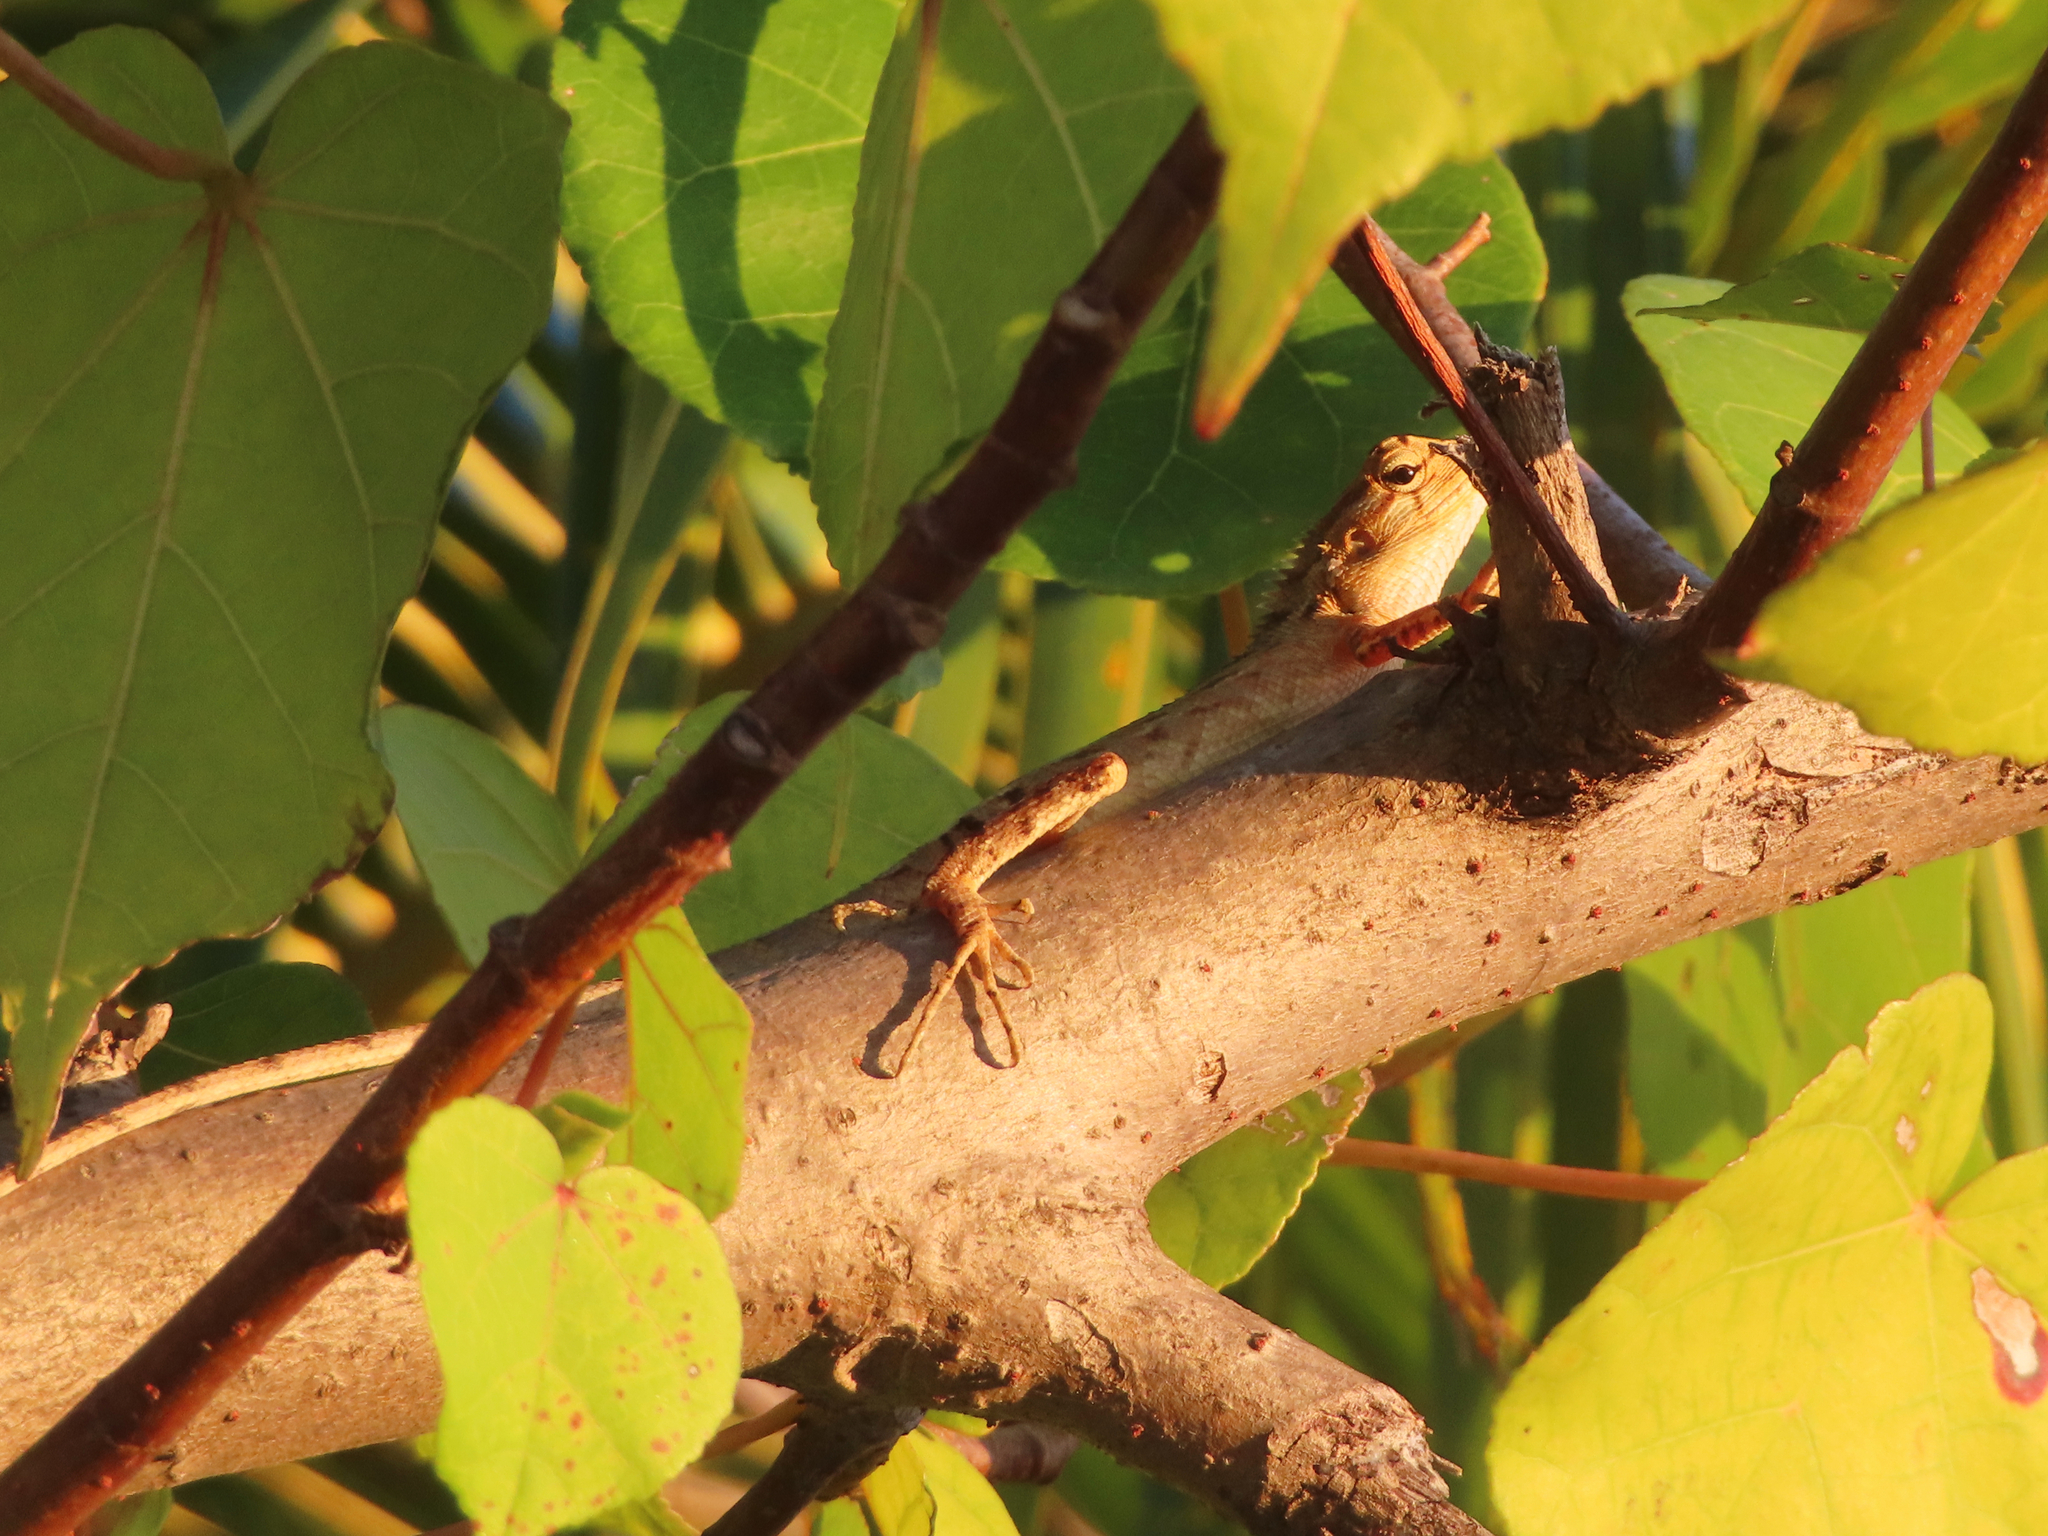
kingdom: Animalia
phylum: Chordata
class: Squamata
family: Agamidae
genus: Calotes
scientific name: Calotes versicolor
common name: Oriental garden lizard
